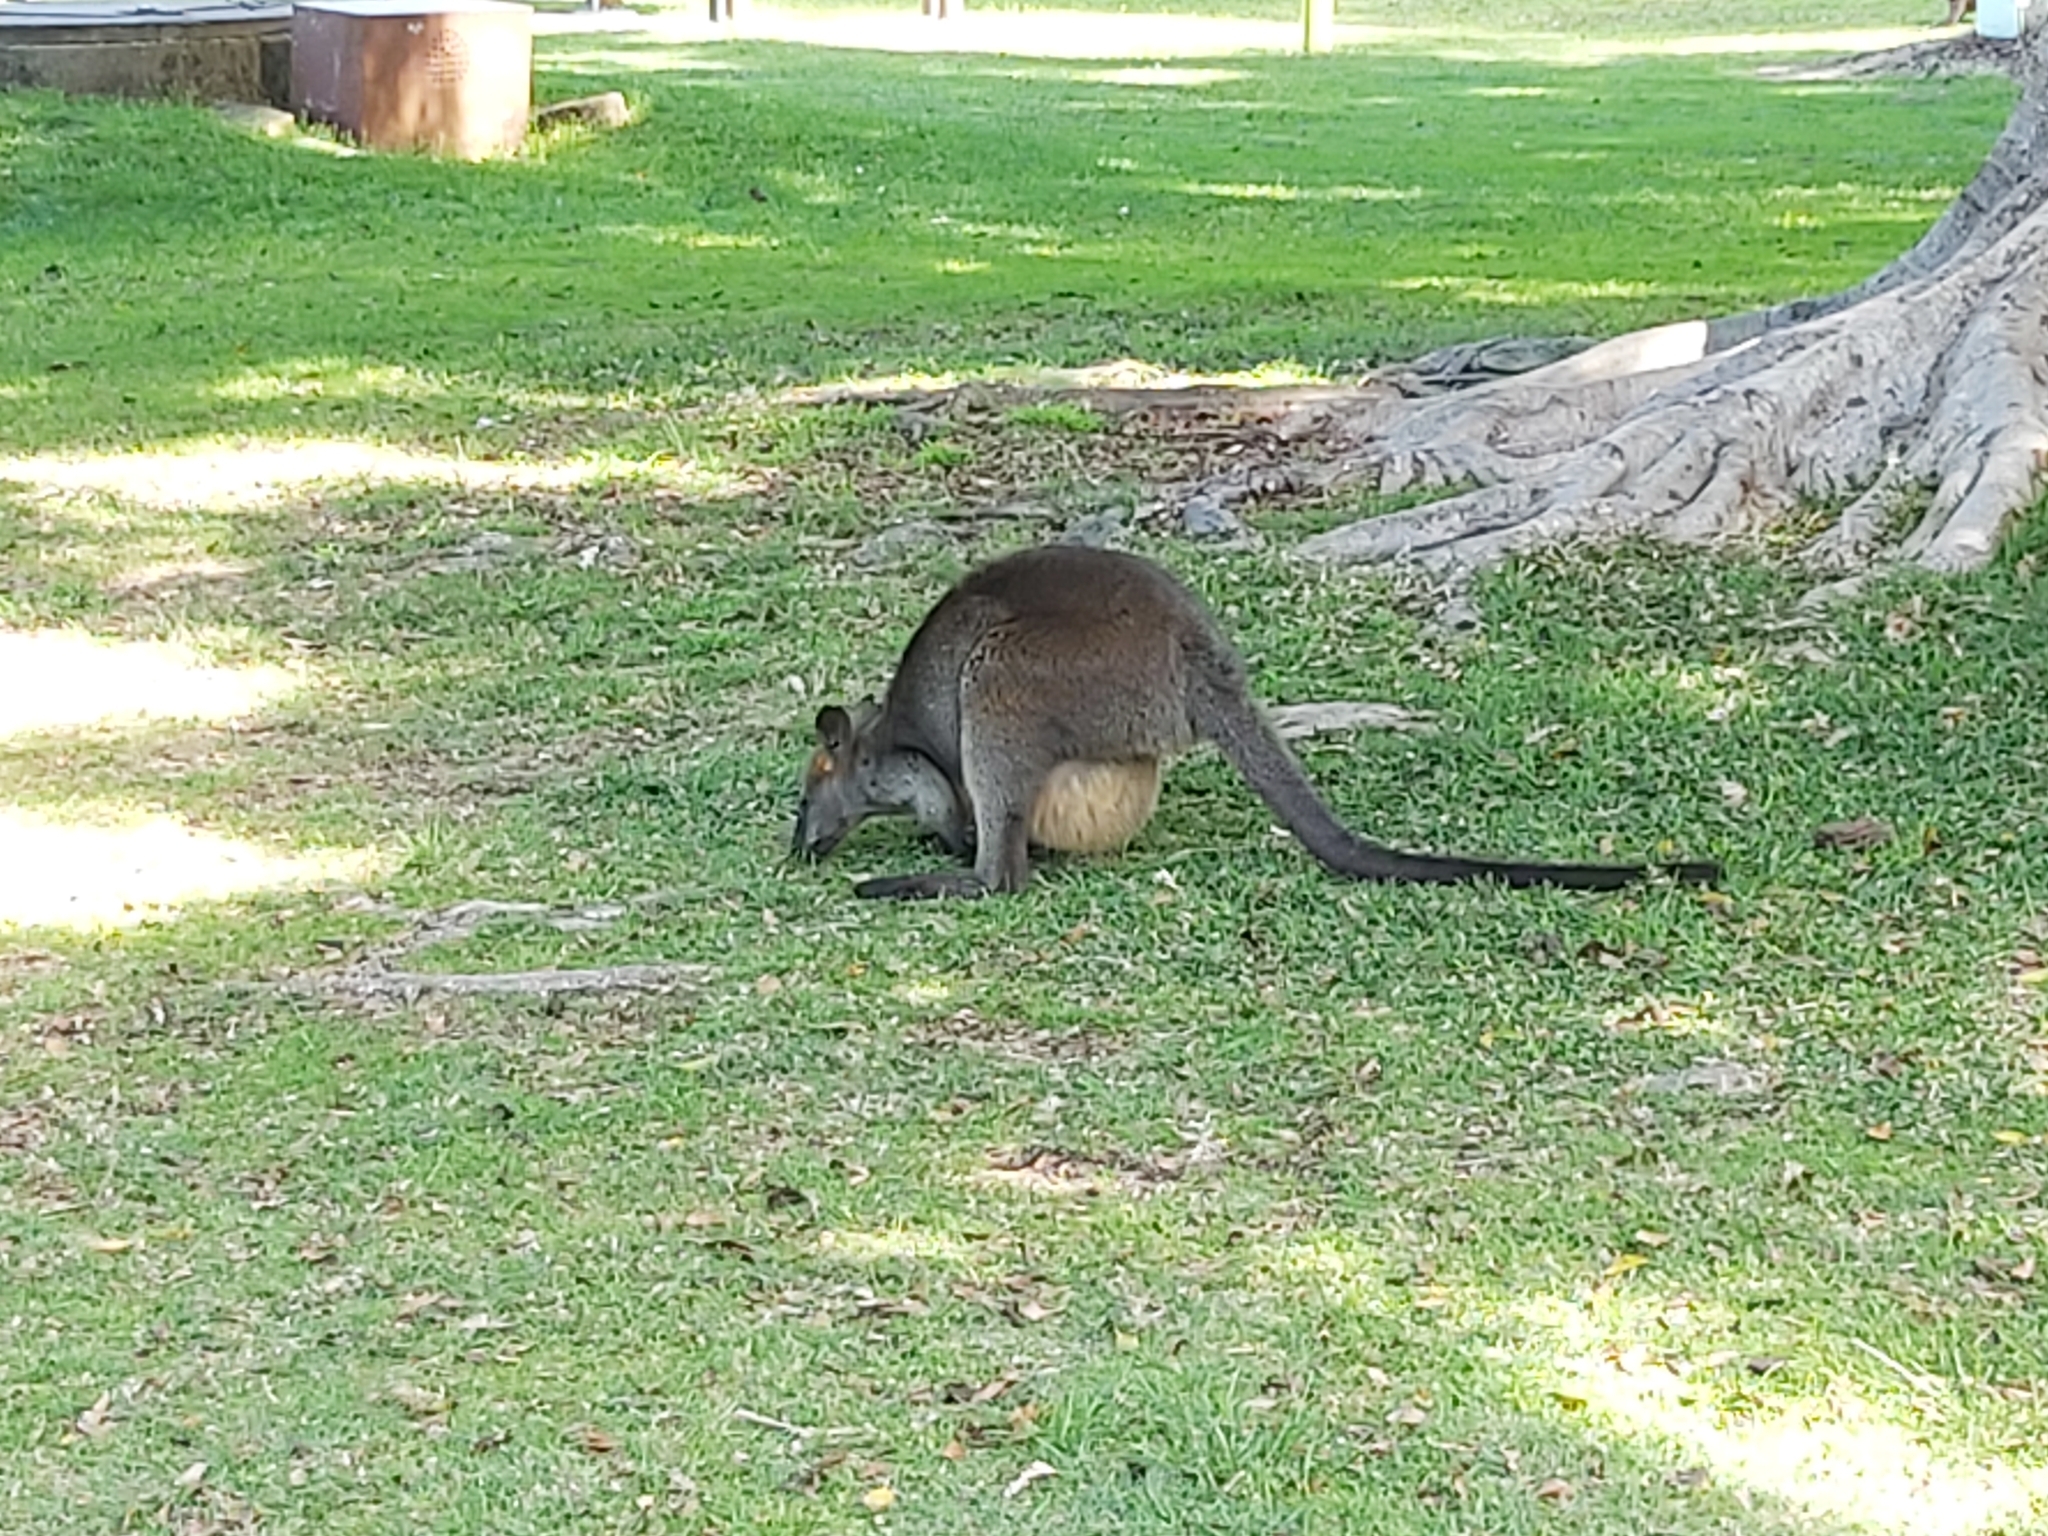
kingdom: Animalia
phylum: Chordata
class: Mammalia
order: Diprotodontia
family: Macropodidae
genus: Wallabia
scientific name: Wallabia bicolor
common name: Swamp wallaby
